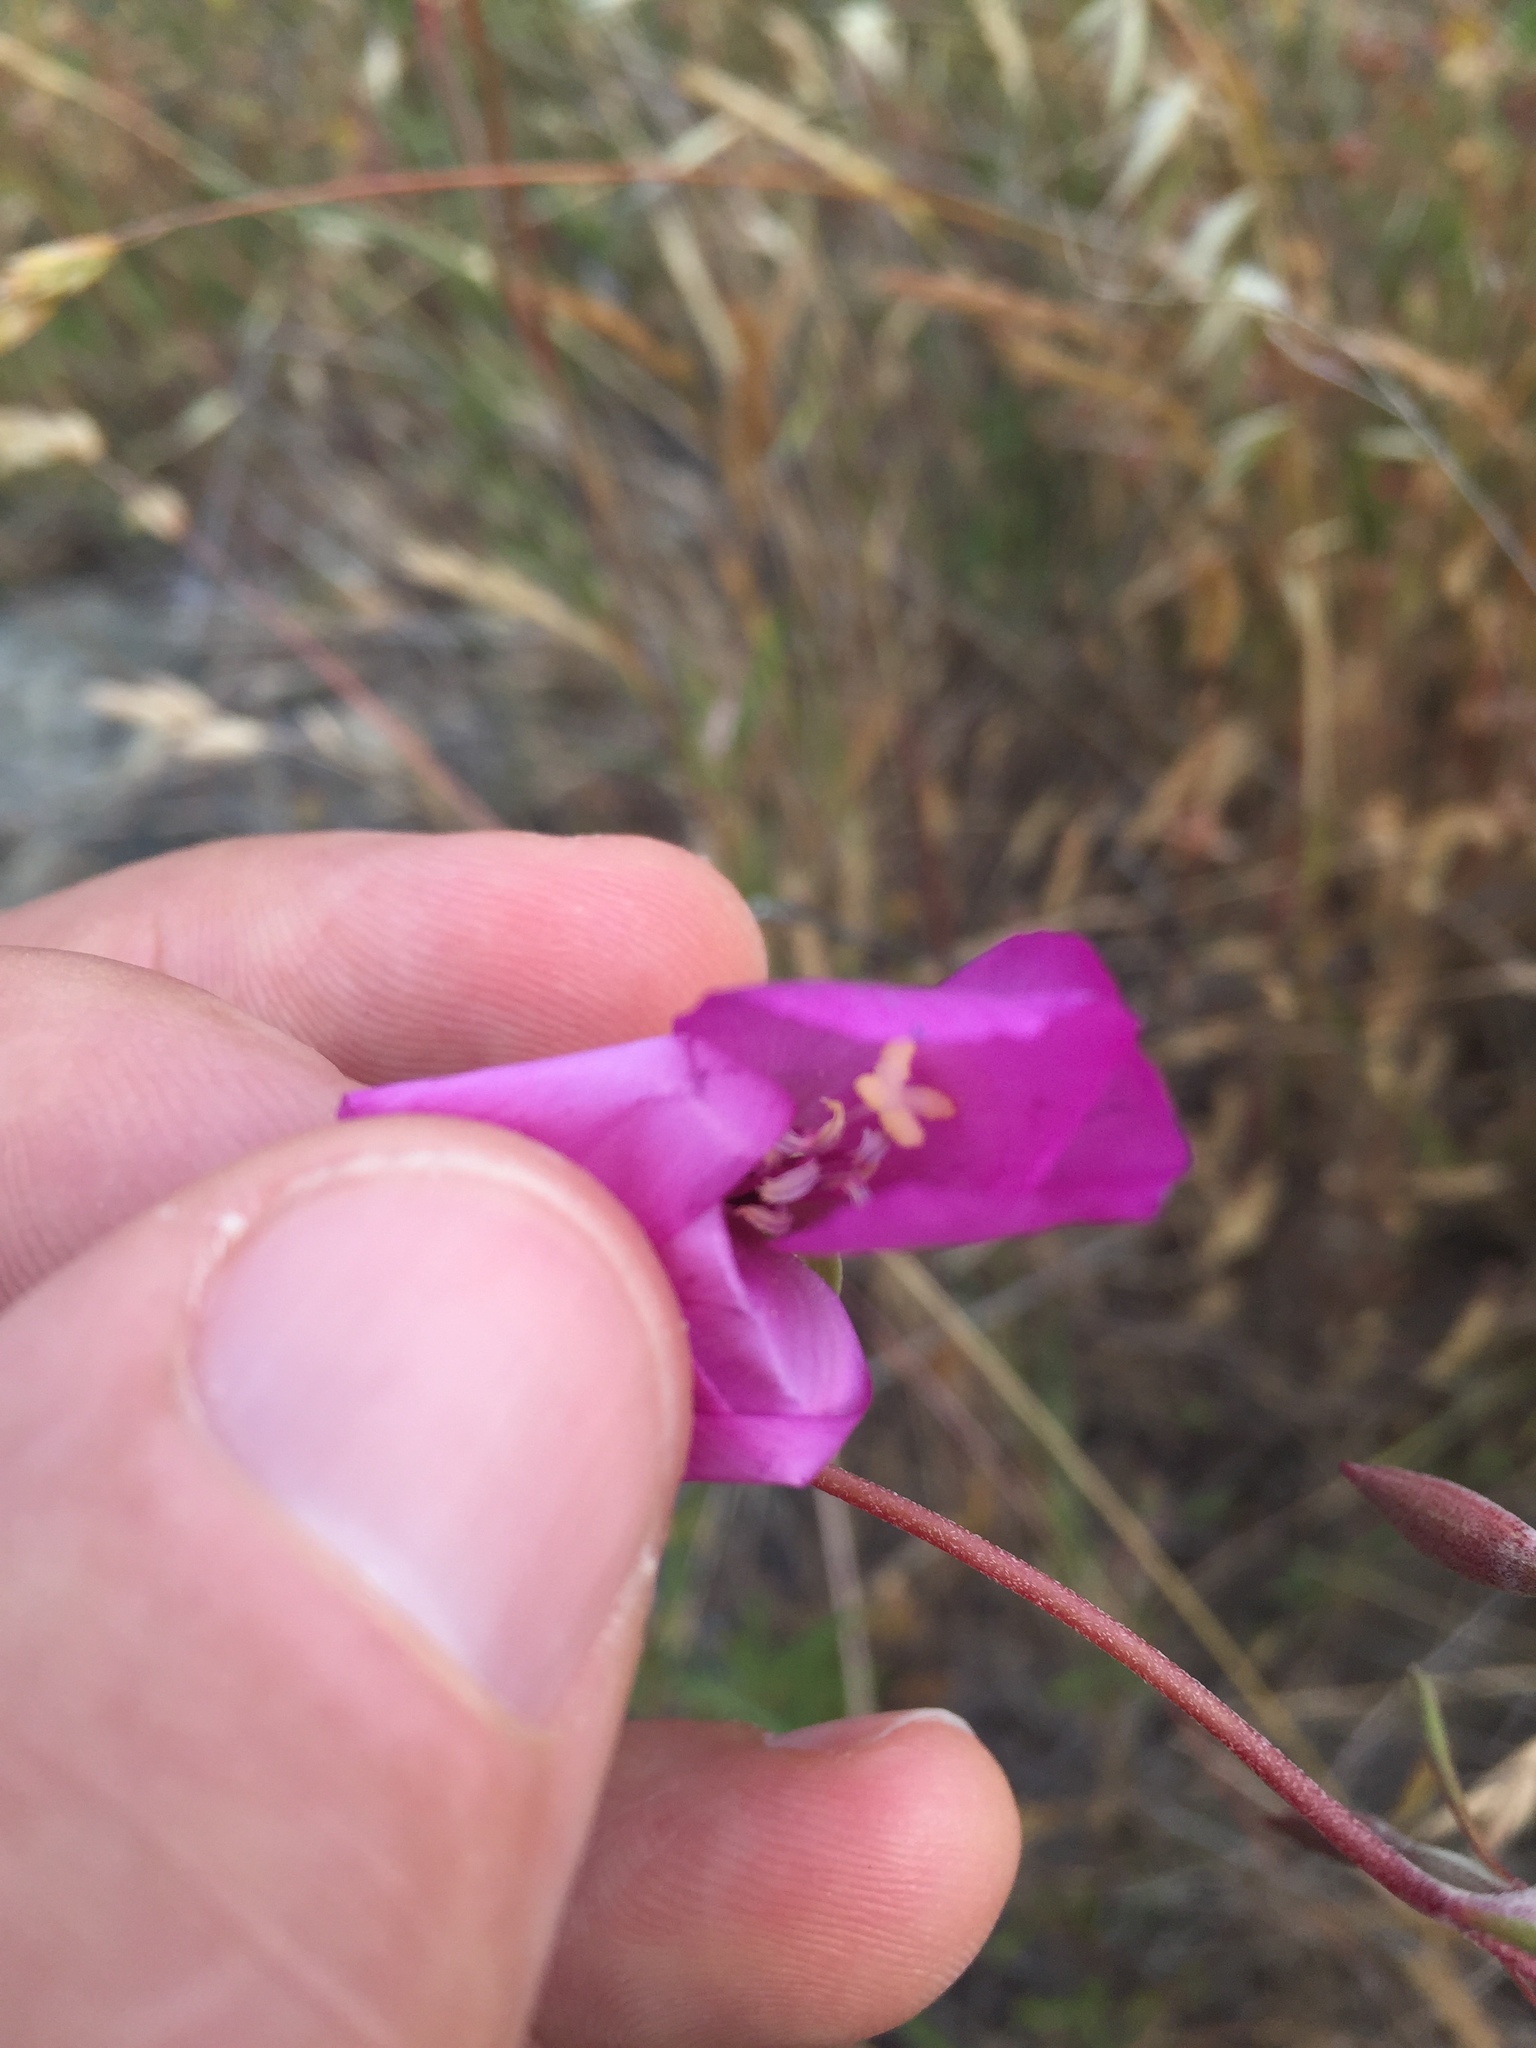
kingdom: Plantae
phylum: Tracheophyta
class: Magnoliopsida
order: Myrtales
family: Onagraceae
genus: Clarkia
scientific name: Clarkia gracilis
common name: Graceful clarkia
